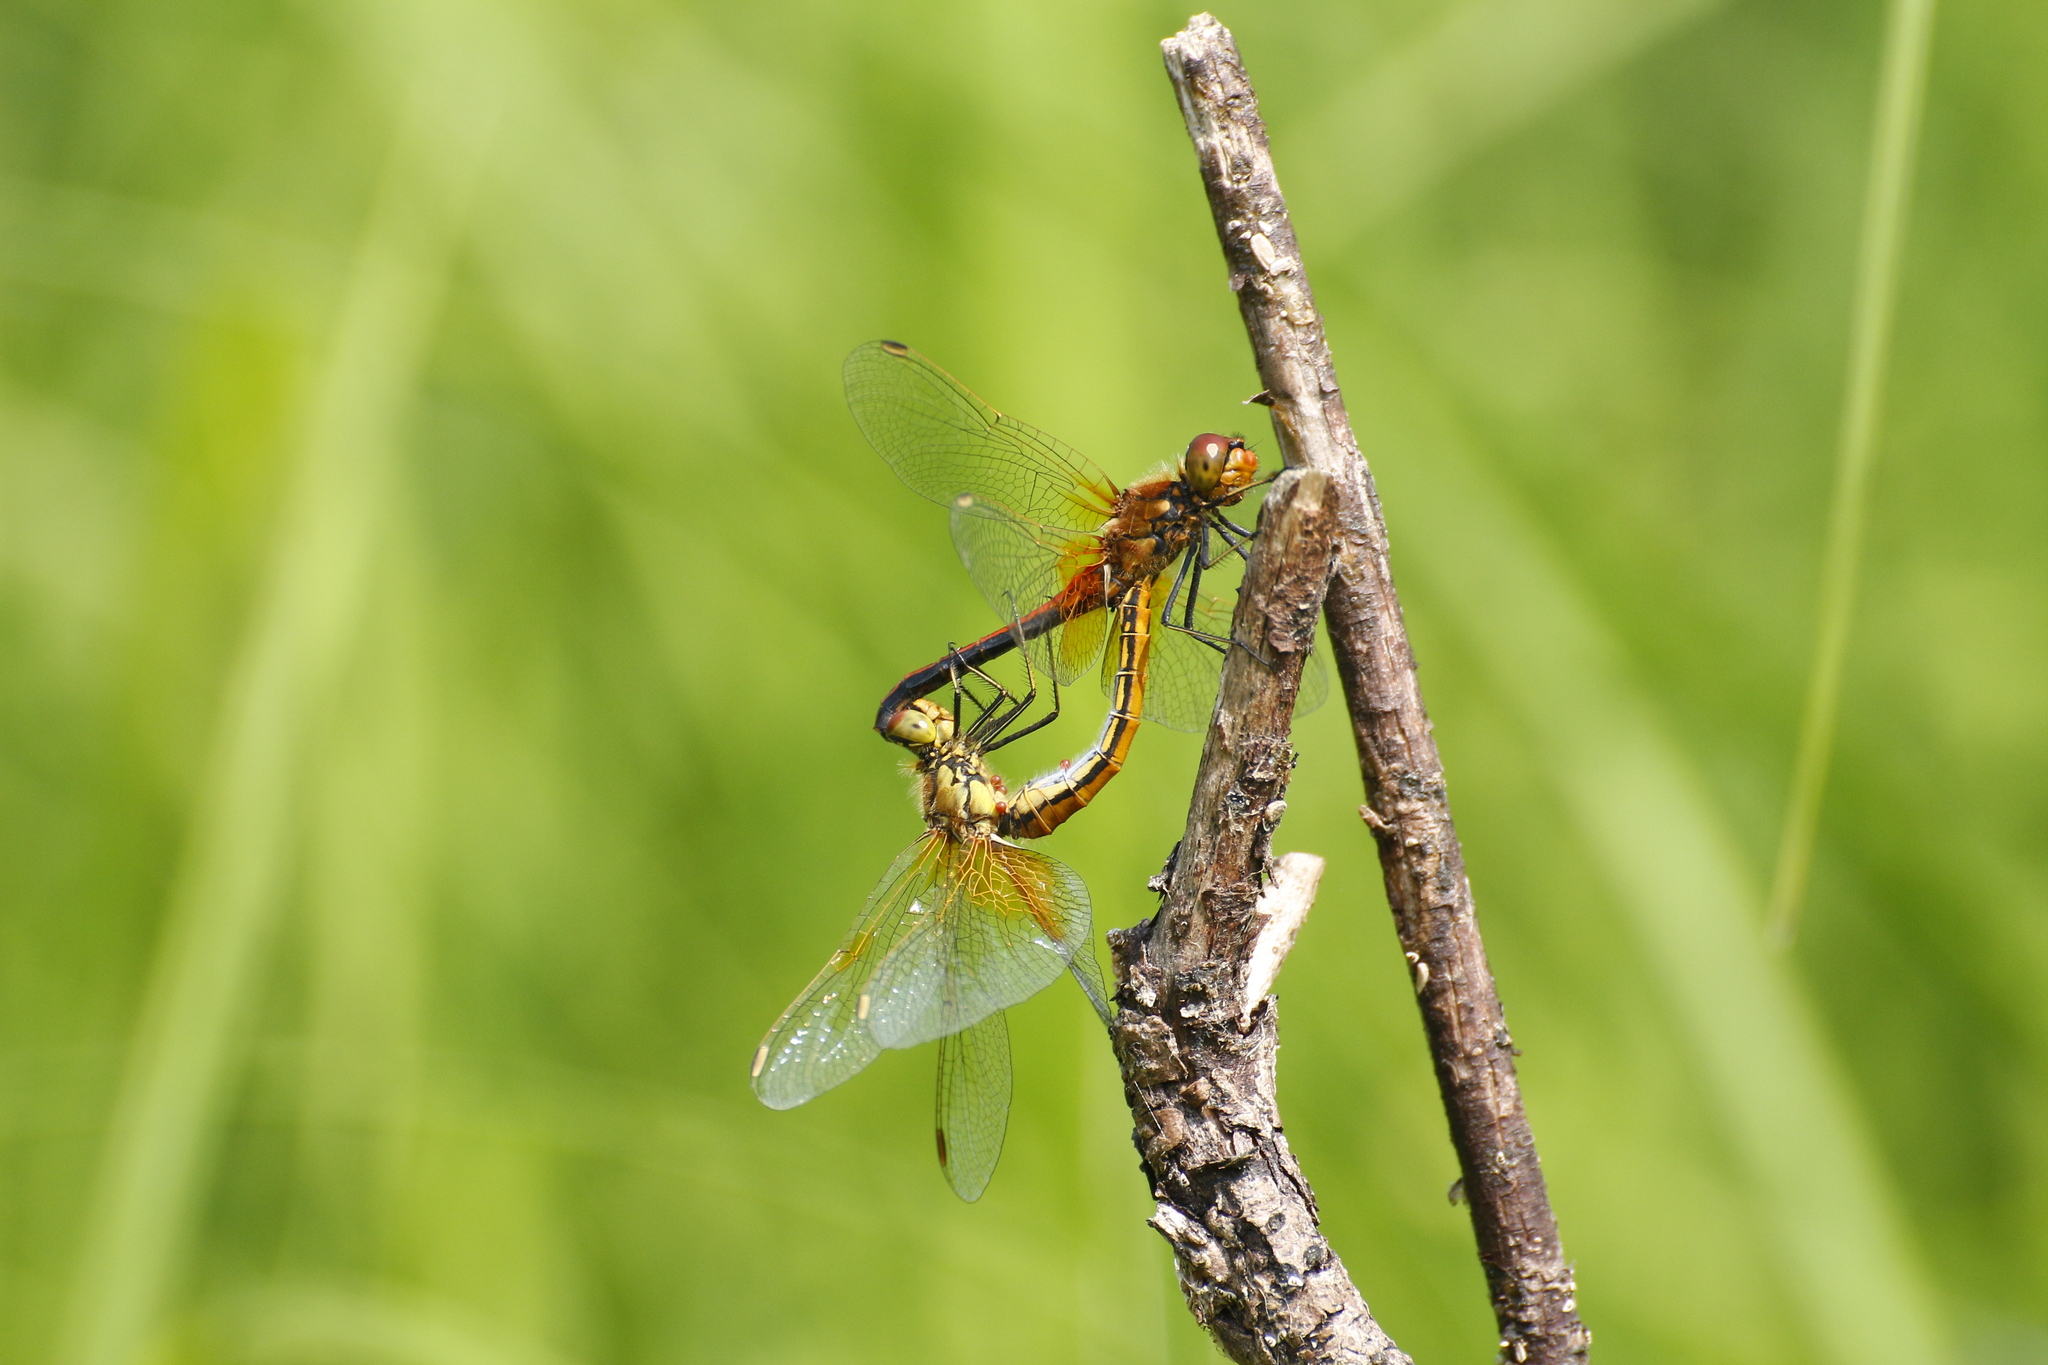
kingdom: Animalia
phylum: Arthropoda
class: Insecta
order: Odonata
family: Libellulidae
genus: Sympetrum
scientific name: Sympetrum flaveolum
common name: Yellow-winged darter
